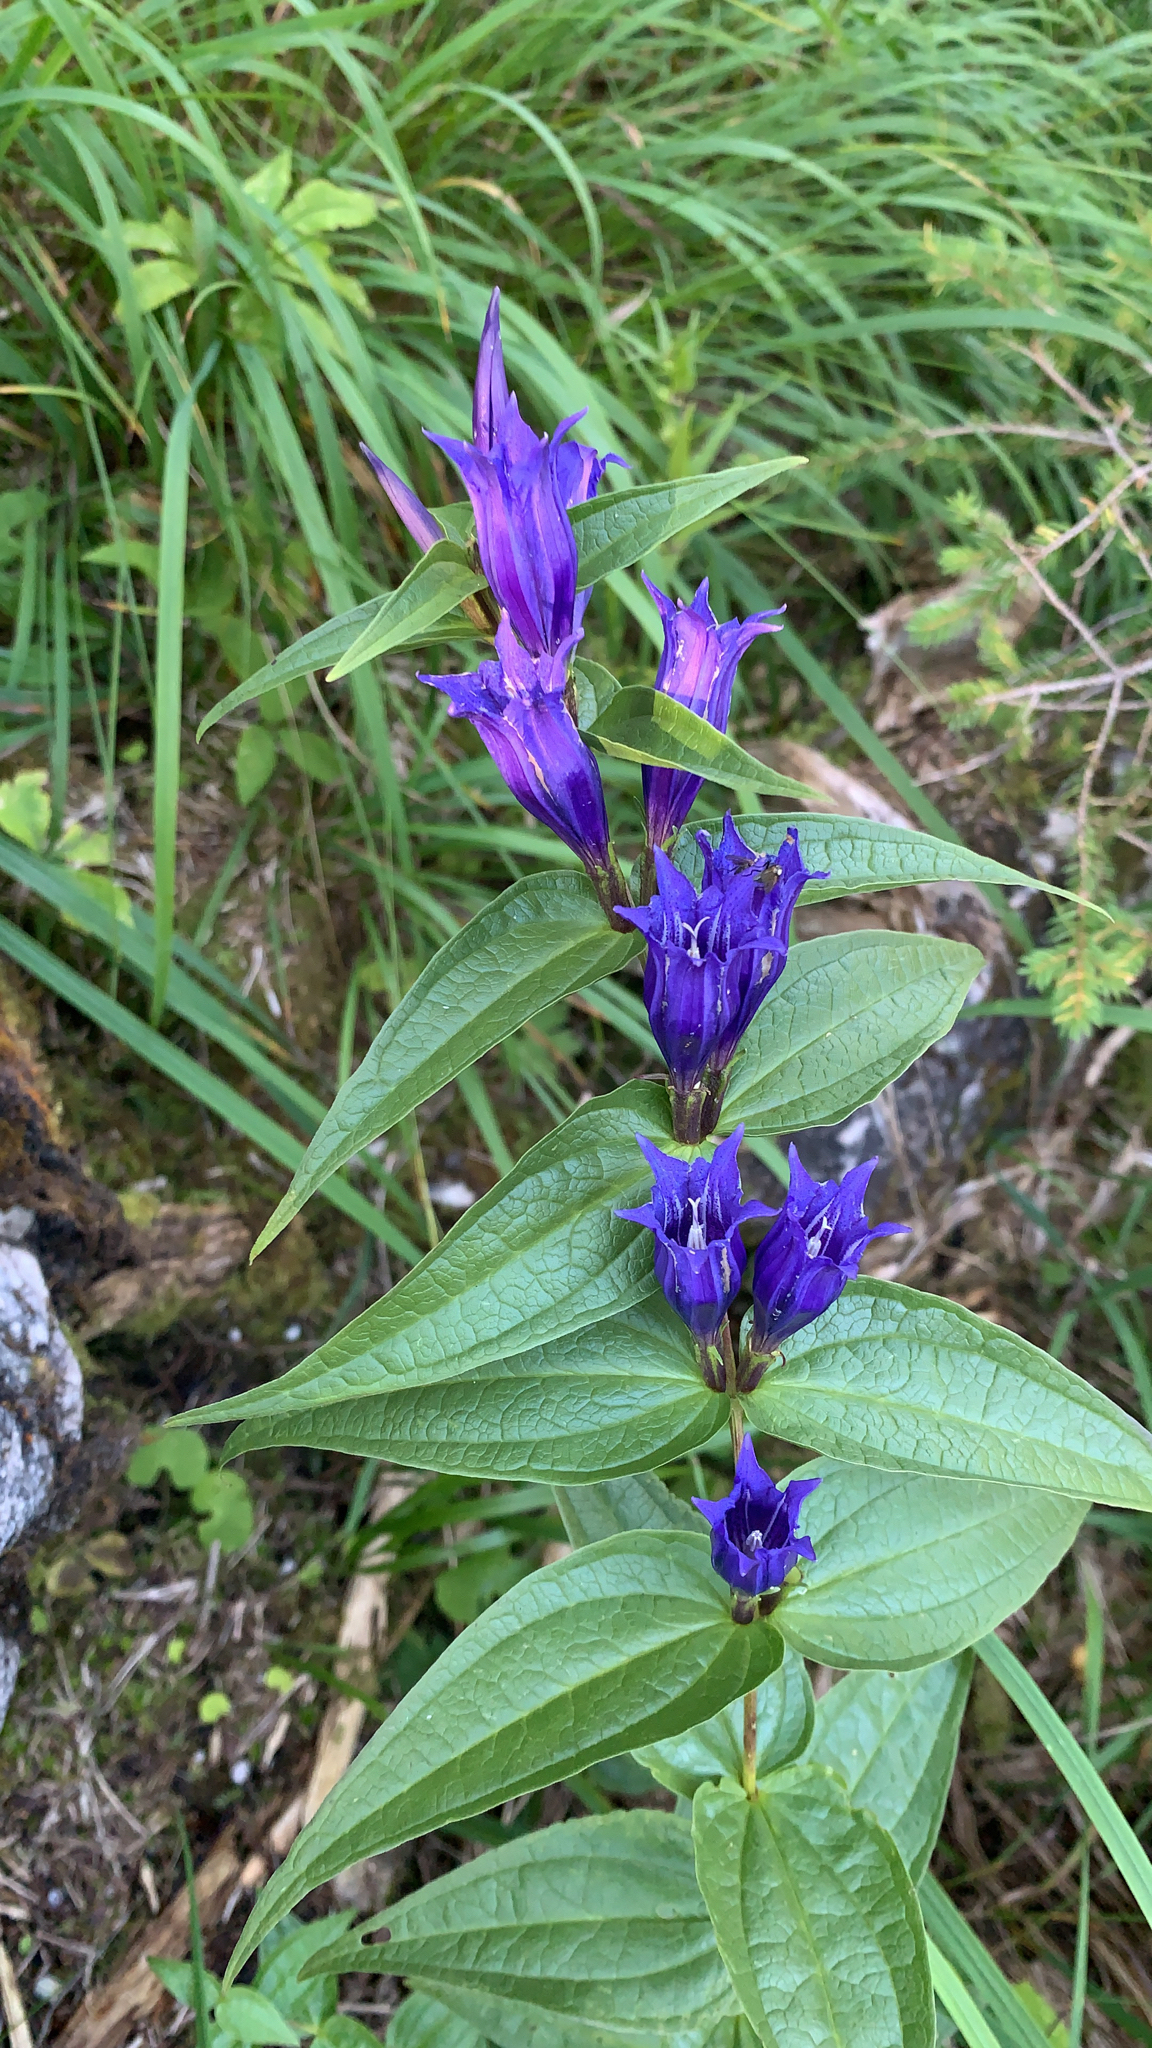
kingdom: Plantae
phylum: Tracheophyta
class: Magnoliopsida
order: Gentianales
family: Gentianaceae
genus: Gentiana
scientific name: Gentiana asclepiadea
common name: Willow gentian
